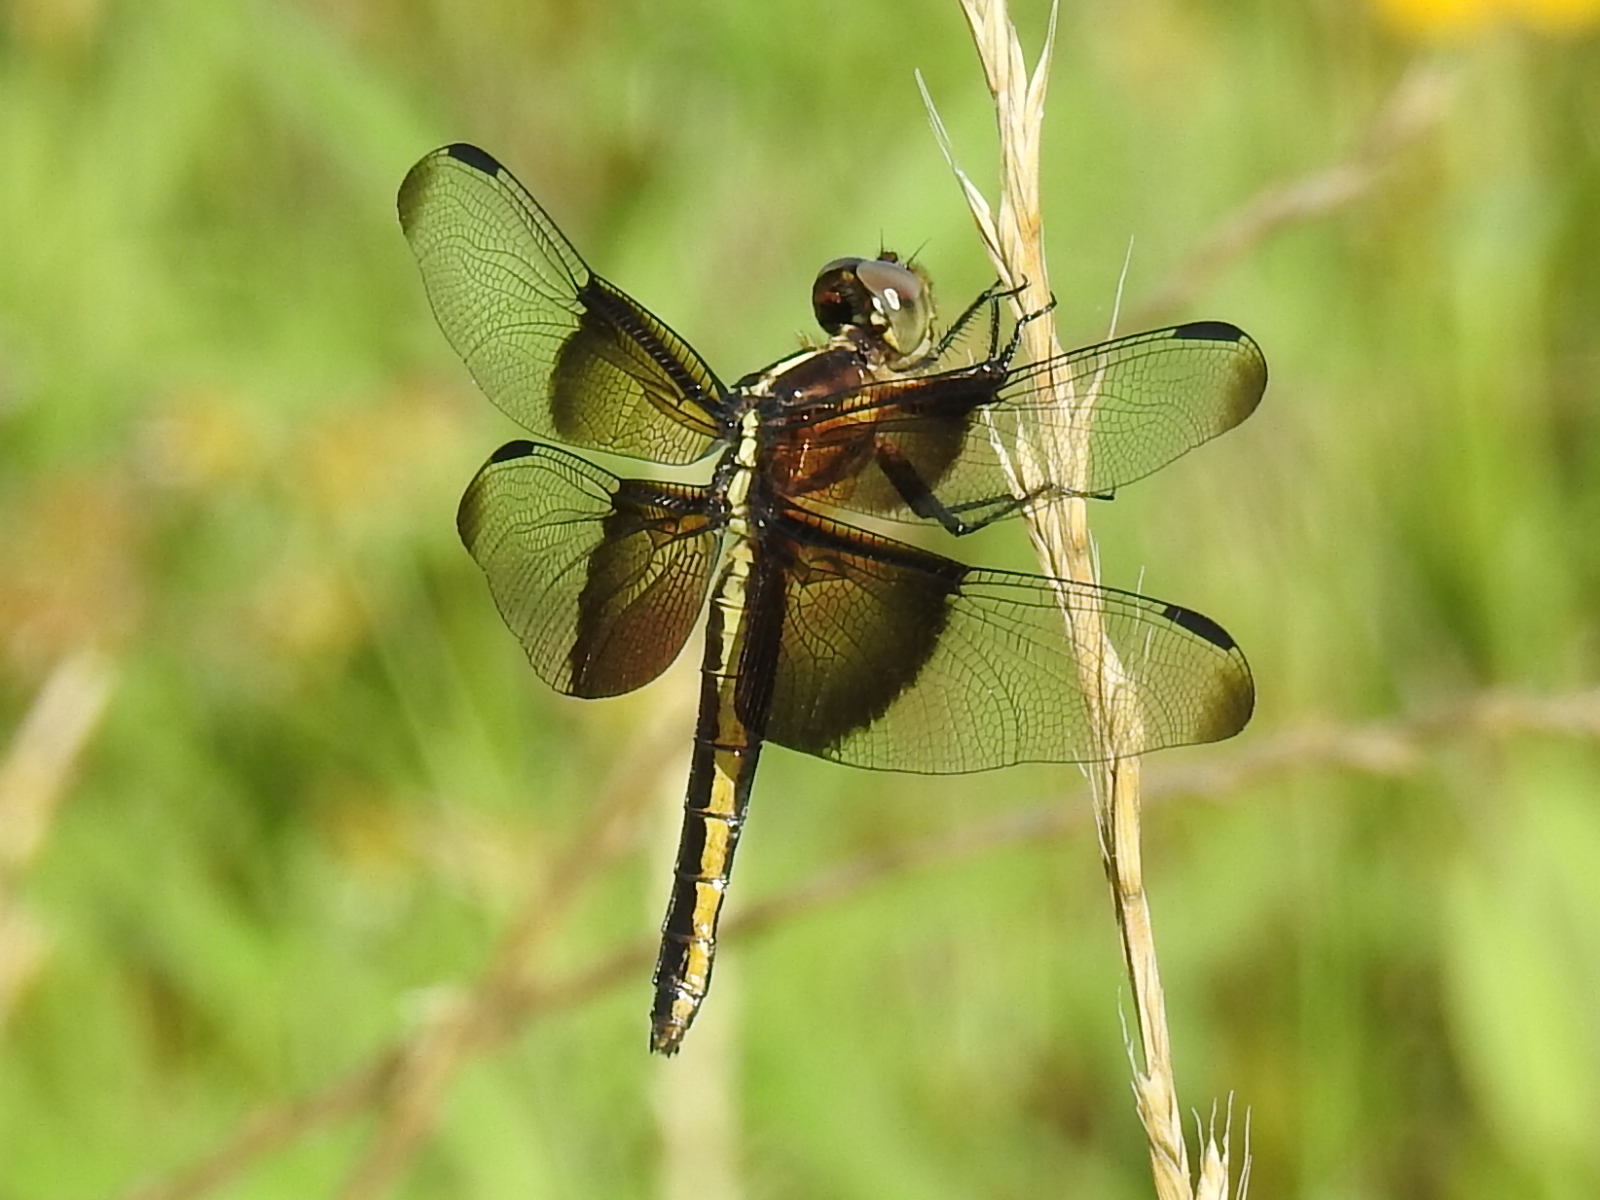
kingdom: Animalia
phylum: Arthropoda
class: Insecta
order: Odonata
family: Libellulidae
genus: Libellula
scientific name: Libellula luctuosa
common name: Widow skimmer
